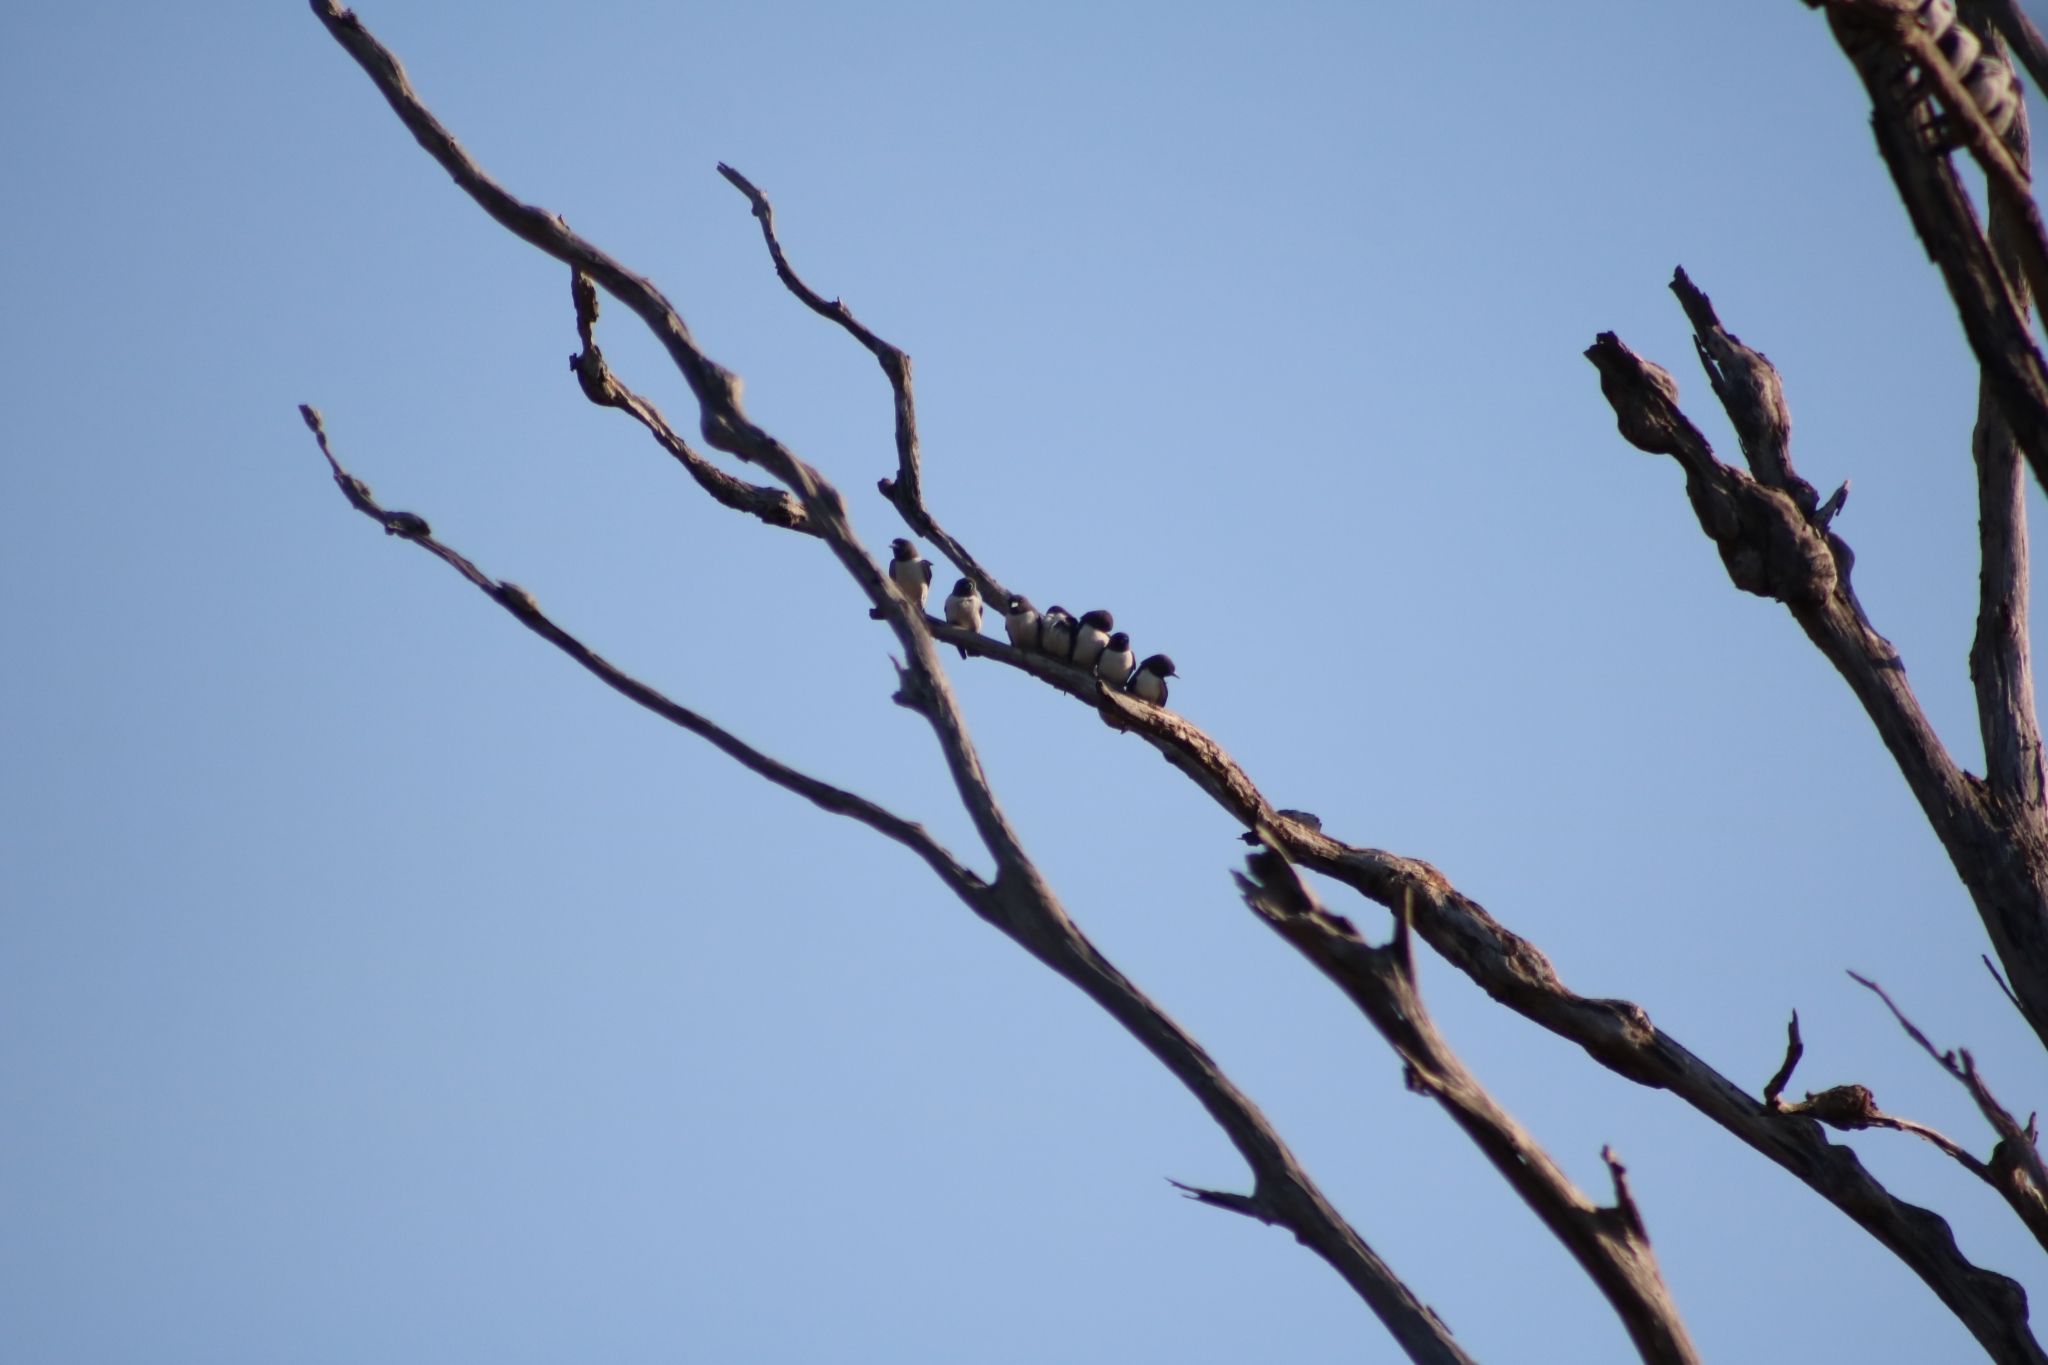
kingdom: Animalia
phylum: Chordata
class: Aves
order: Passeriformes
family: Artamidae
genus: Artamus
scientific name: Artamus leucoryn
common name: White-breasted woodswallow
